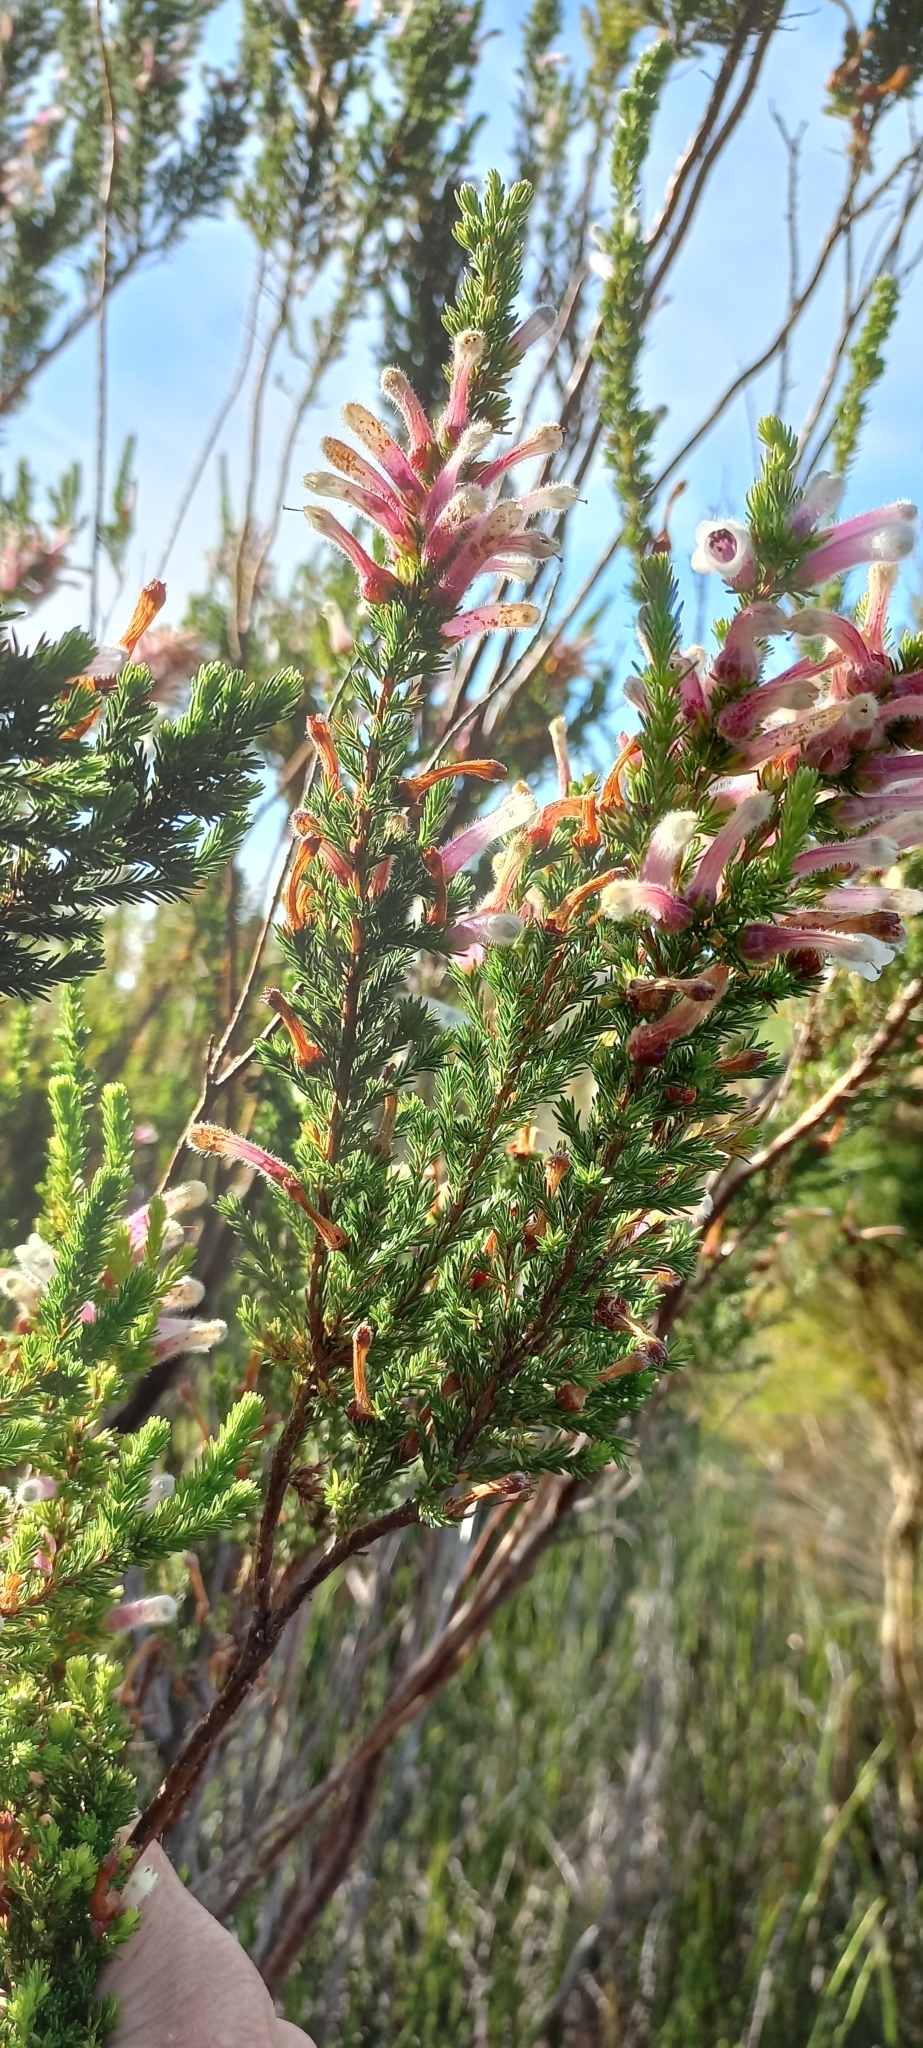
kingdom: Plantae
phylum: Tracheophyta
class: Magnoliopsida
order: Ericales
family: Ericaceae
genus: Erica
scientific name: Erica perspicua
